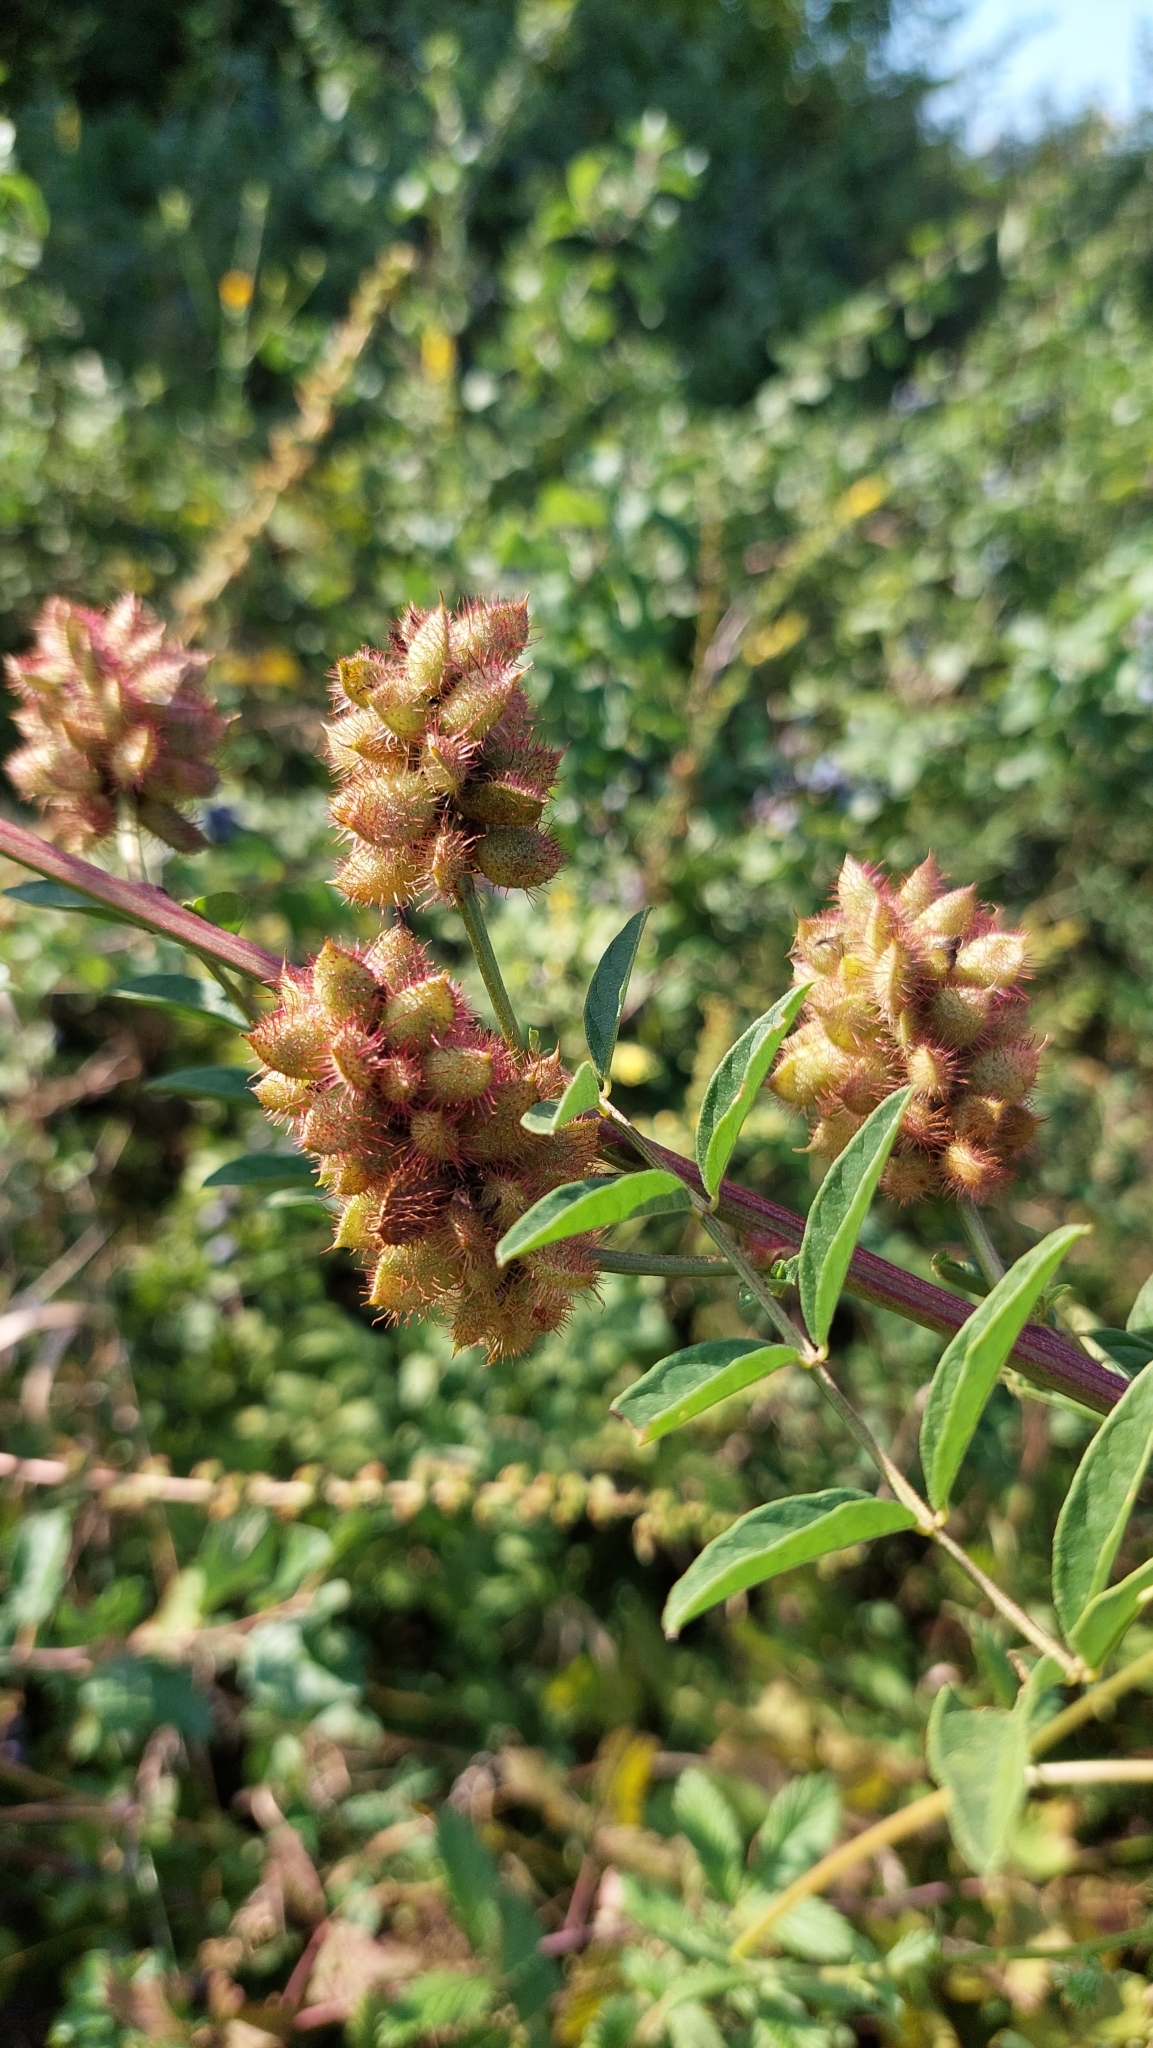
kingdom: Plantae
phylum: Tracheophyta
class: Magnoliopsida
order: Fabales
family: Fabaceae
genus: Glycyrrhiza
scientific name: Glycyrrhiza echinata
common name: German liquorice
